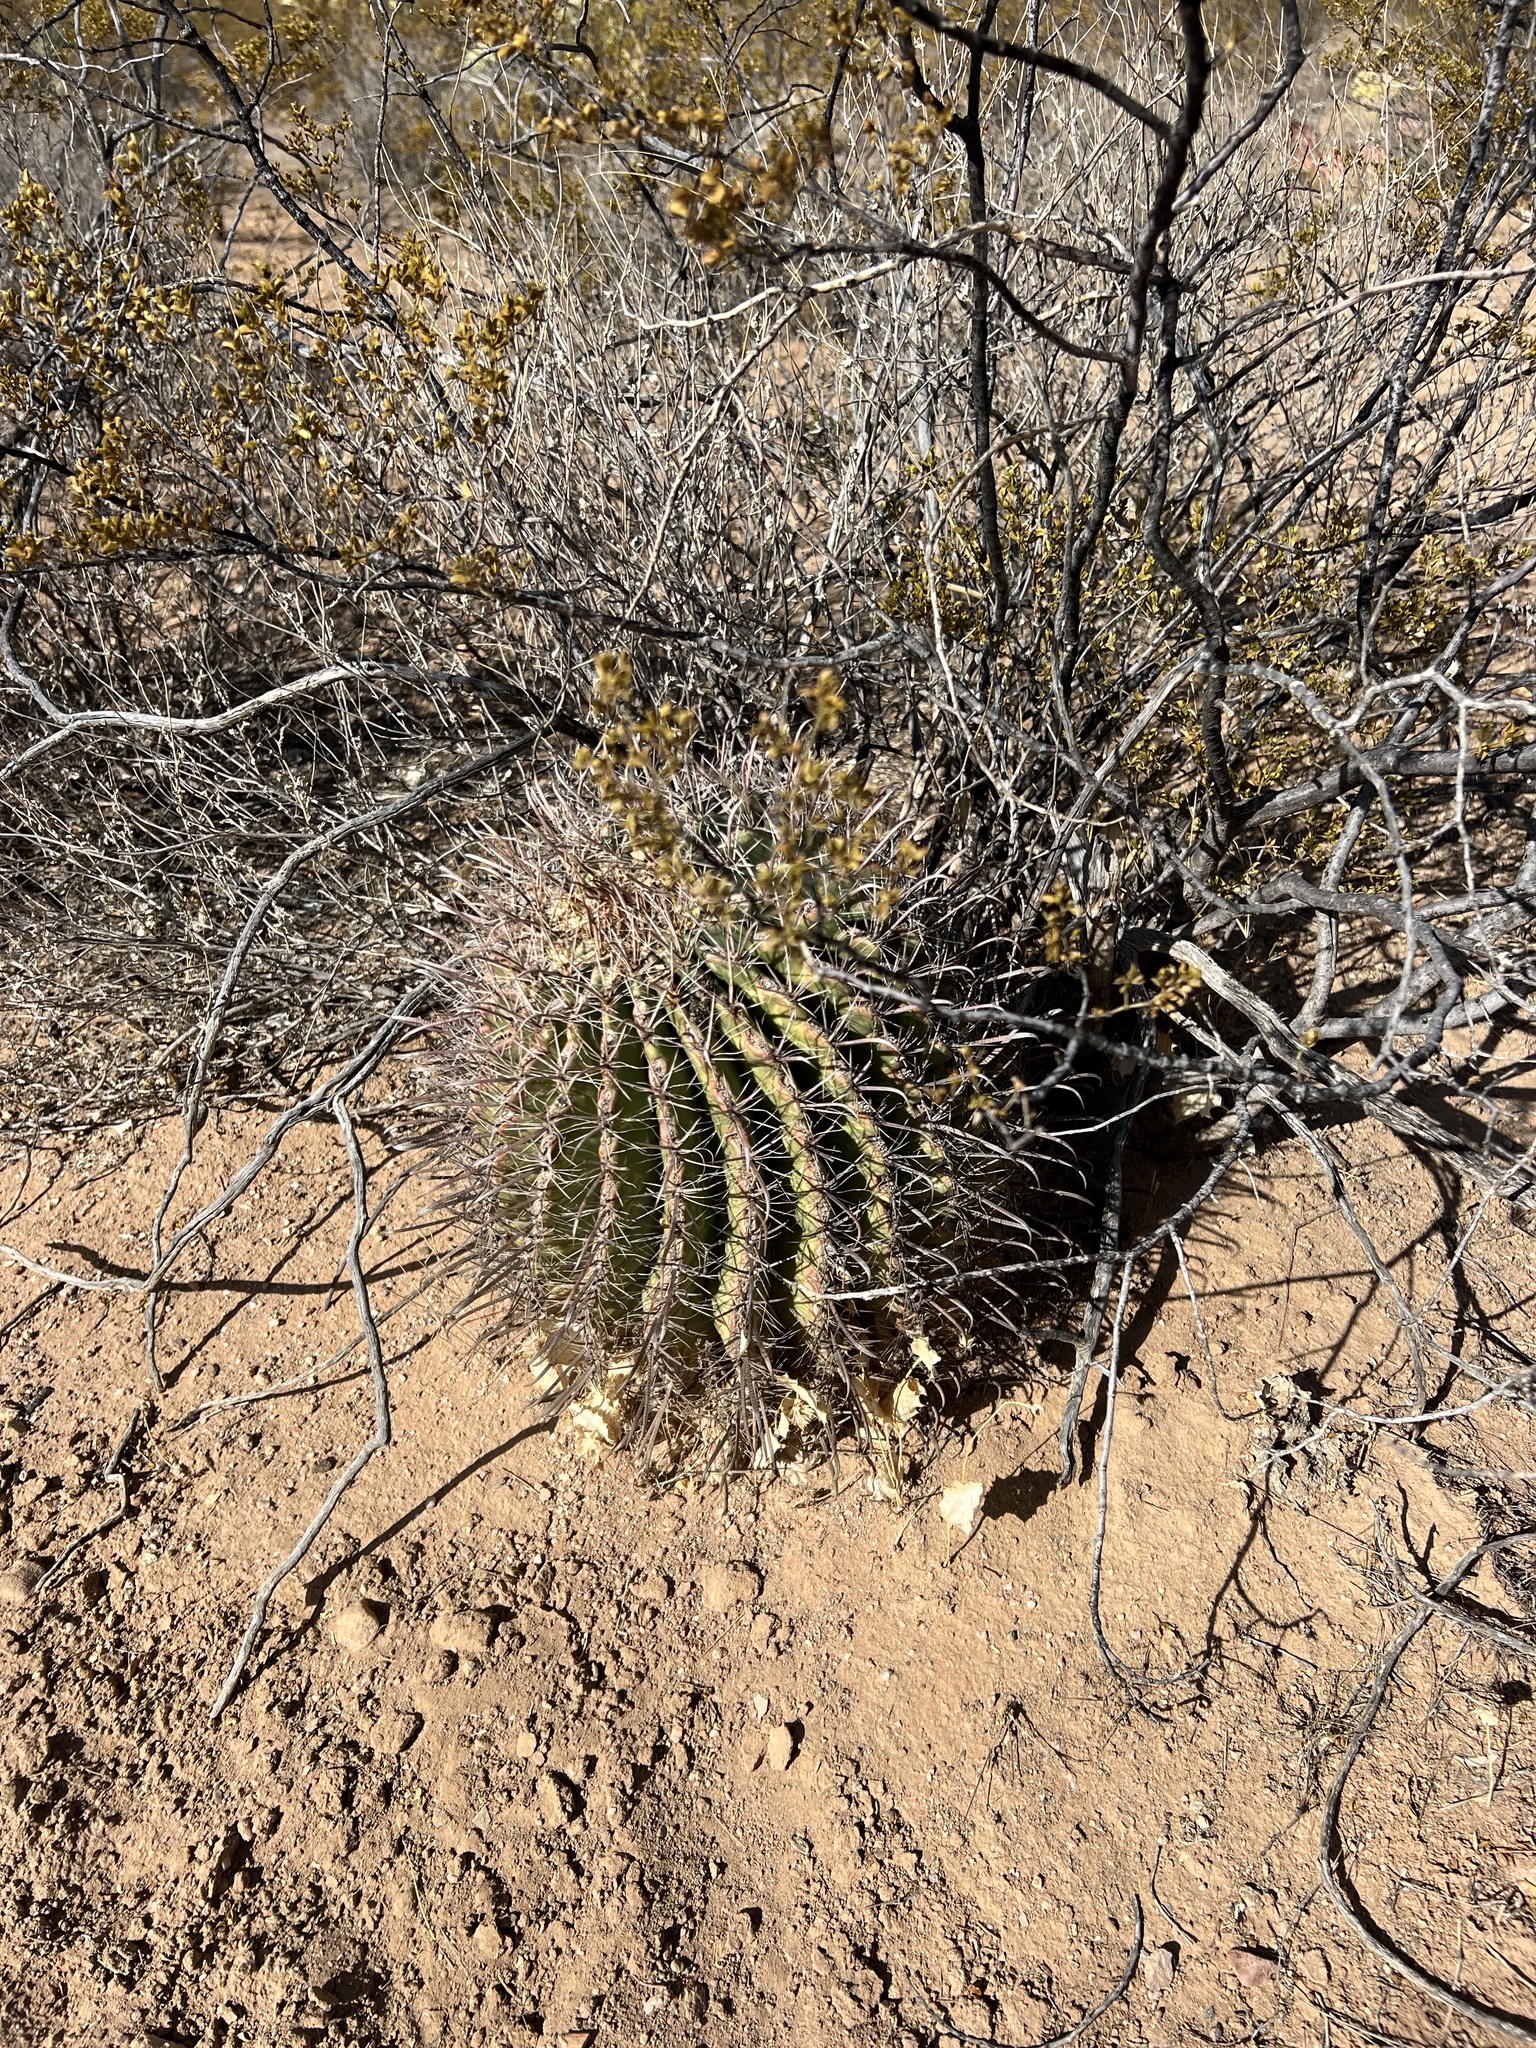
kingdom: Plantae
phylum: Tracheophyta
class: Magnoliopsida
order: Caryophyllales
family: Cactaceae
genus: Ferocactus
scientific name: Ferocactus wislizeni
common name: Candy barrel cactus
